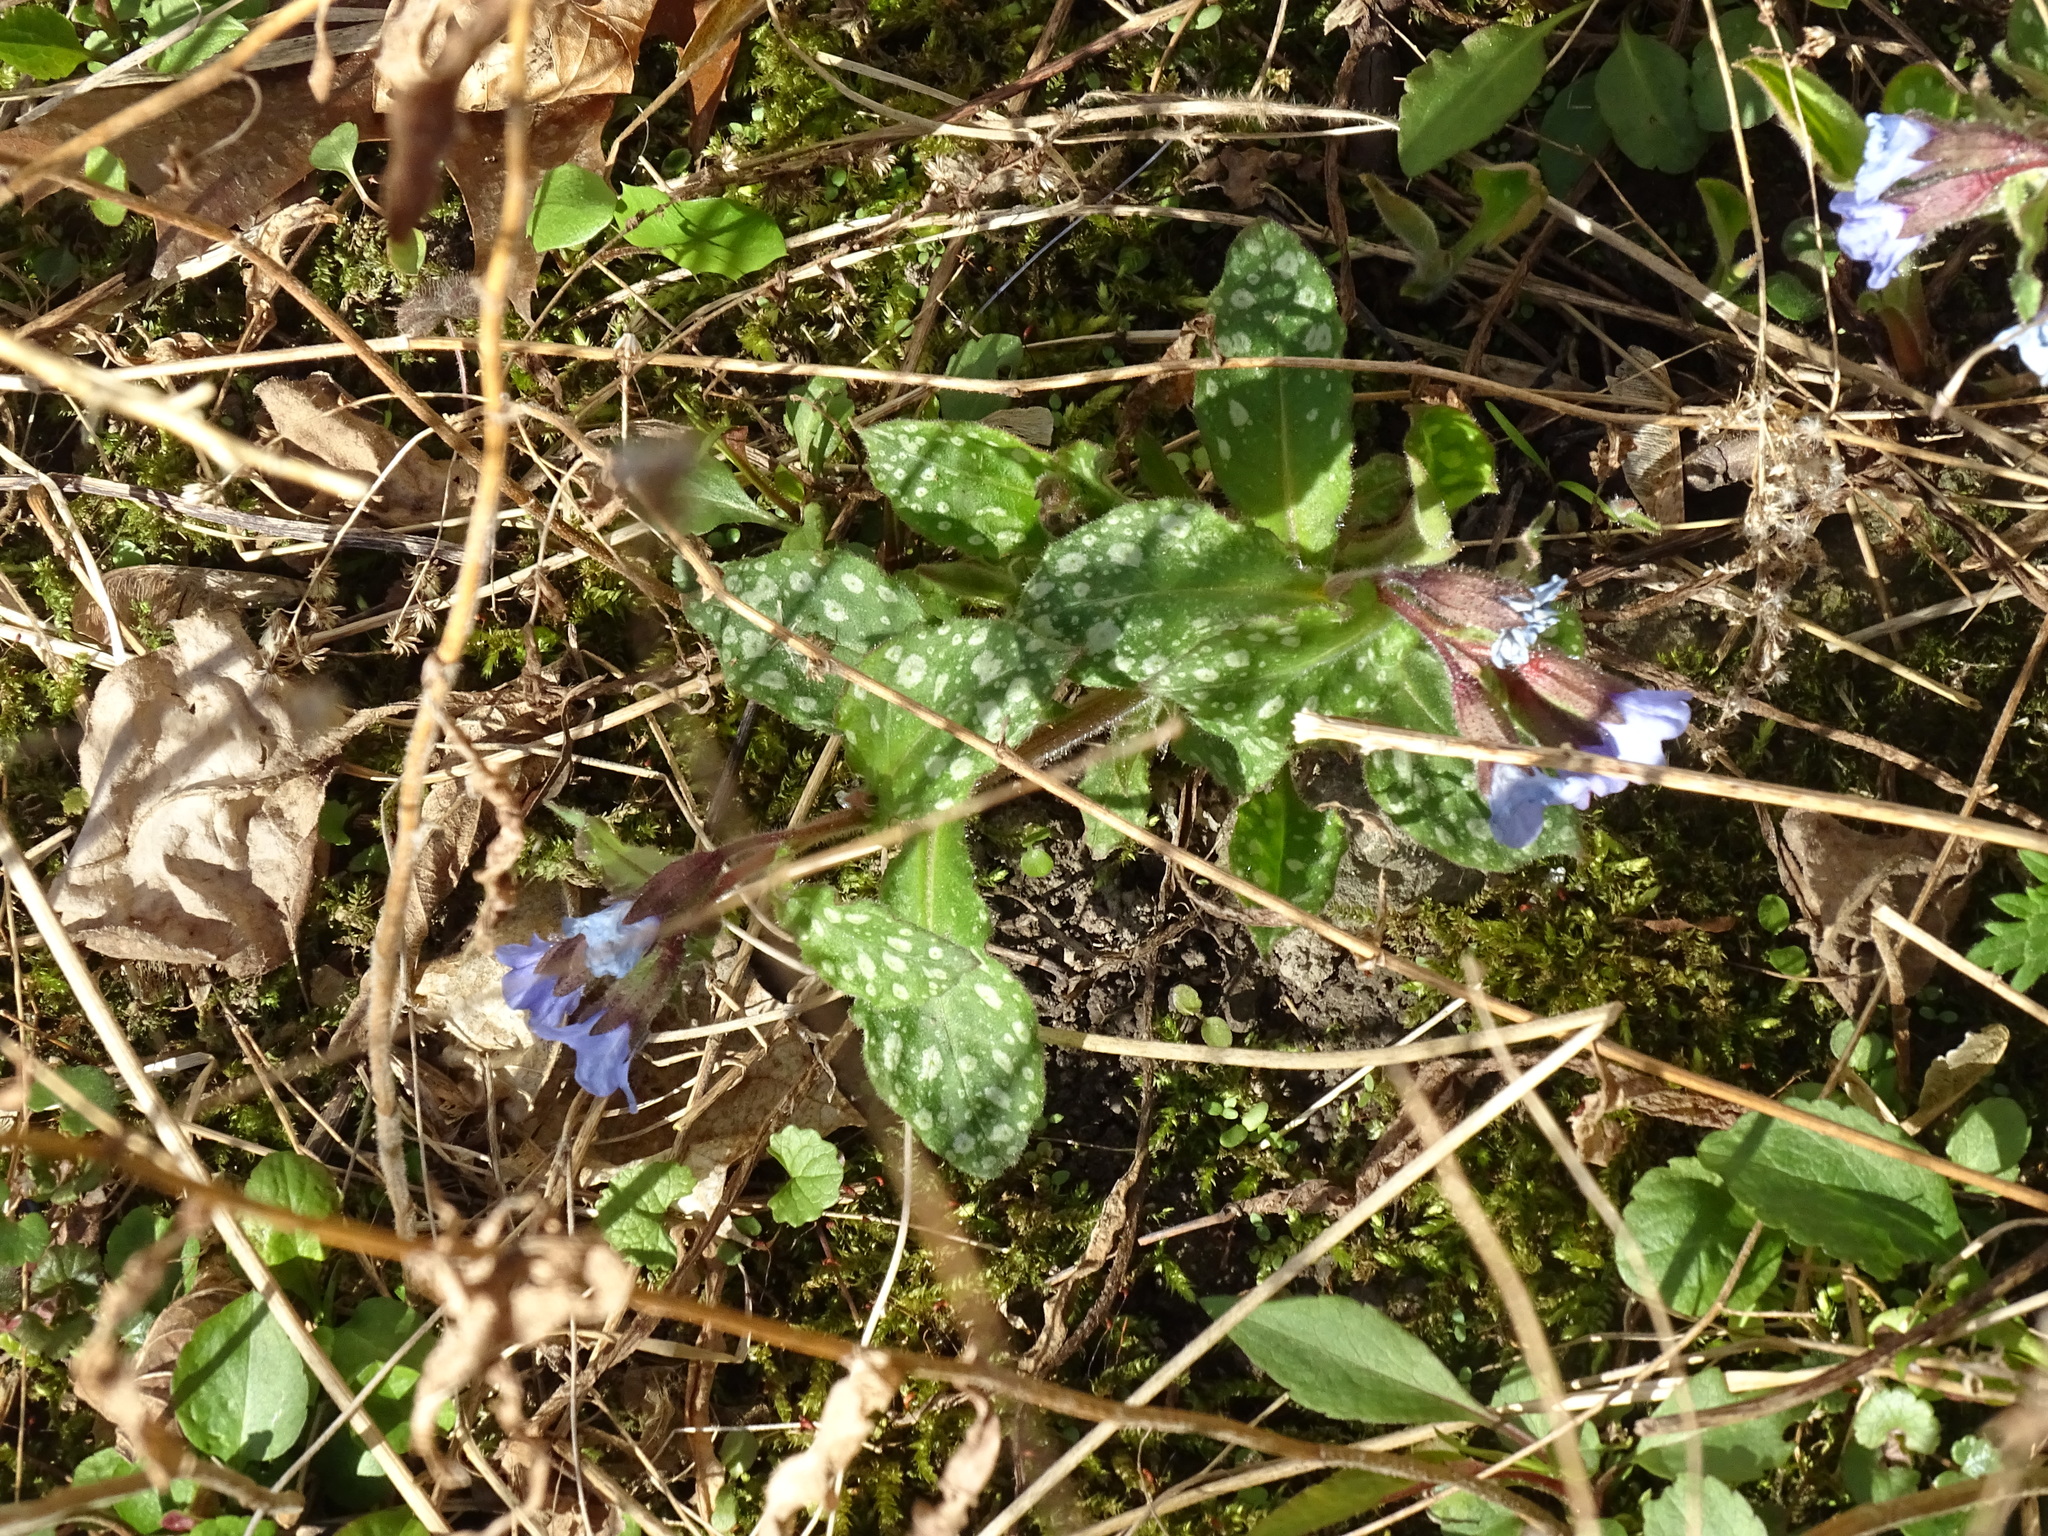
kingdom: Plantae
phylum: Tracheophyta
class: Magnoliopsida
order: Boraginales
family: Boraginaceae
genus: Pulmonaria
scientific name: Pulmonaria officinalis
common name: Lungwort
